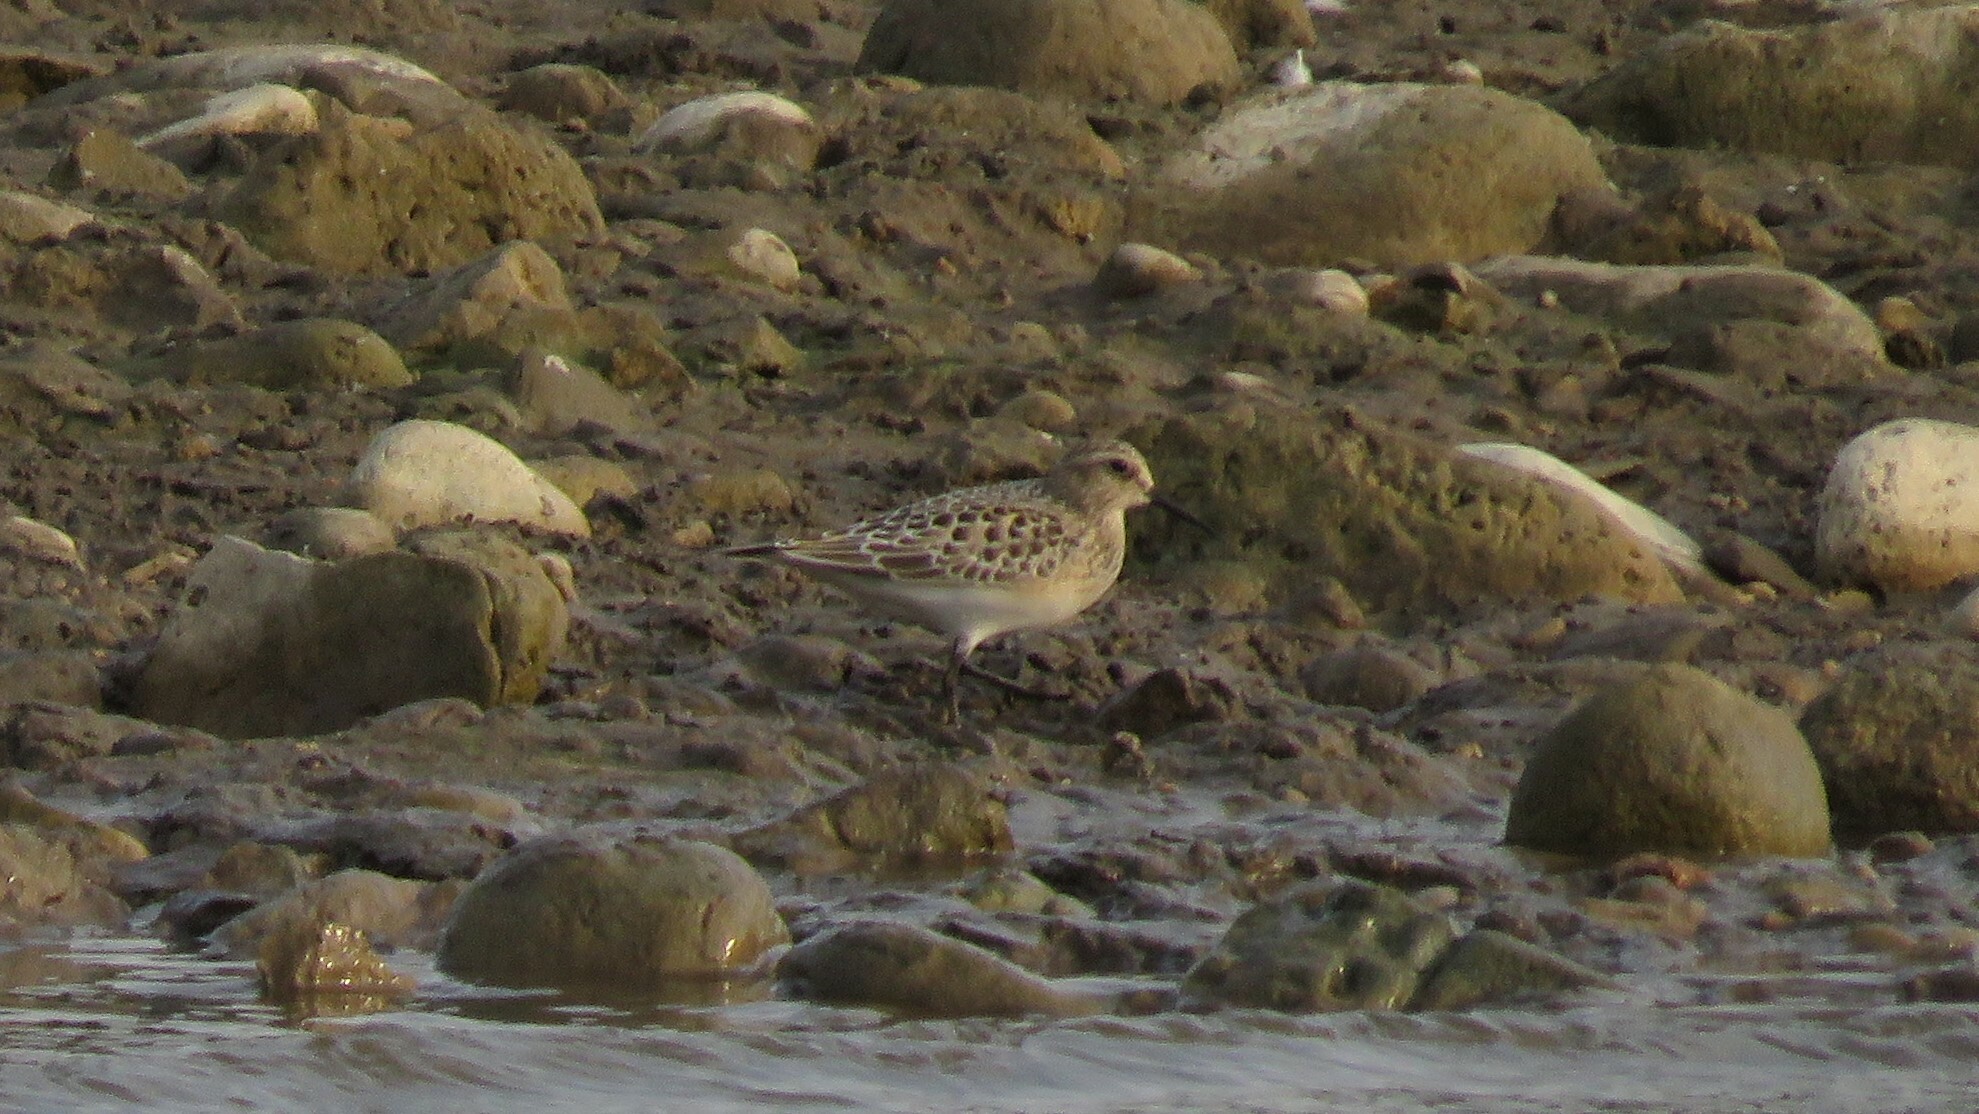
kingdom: Animalia
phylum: Chordata
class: Aves
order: Charadriiformes
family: Scolopacidae
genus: Calidris
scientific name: Calidris bairdii
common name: Baird's sandpiper
